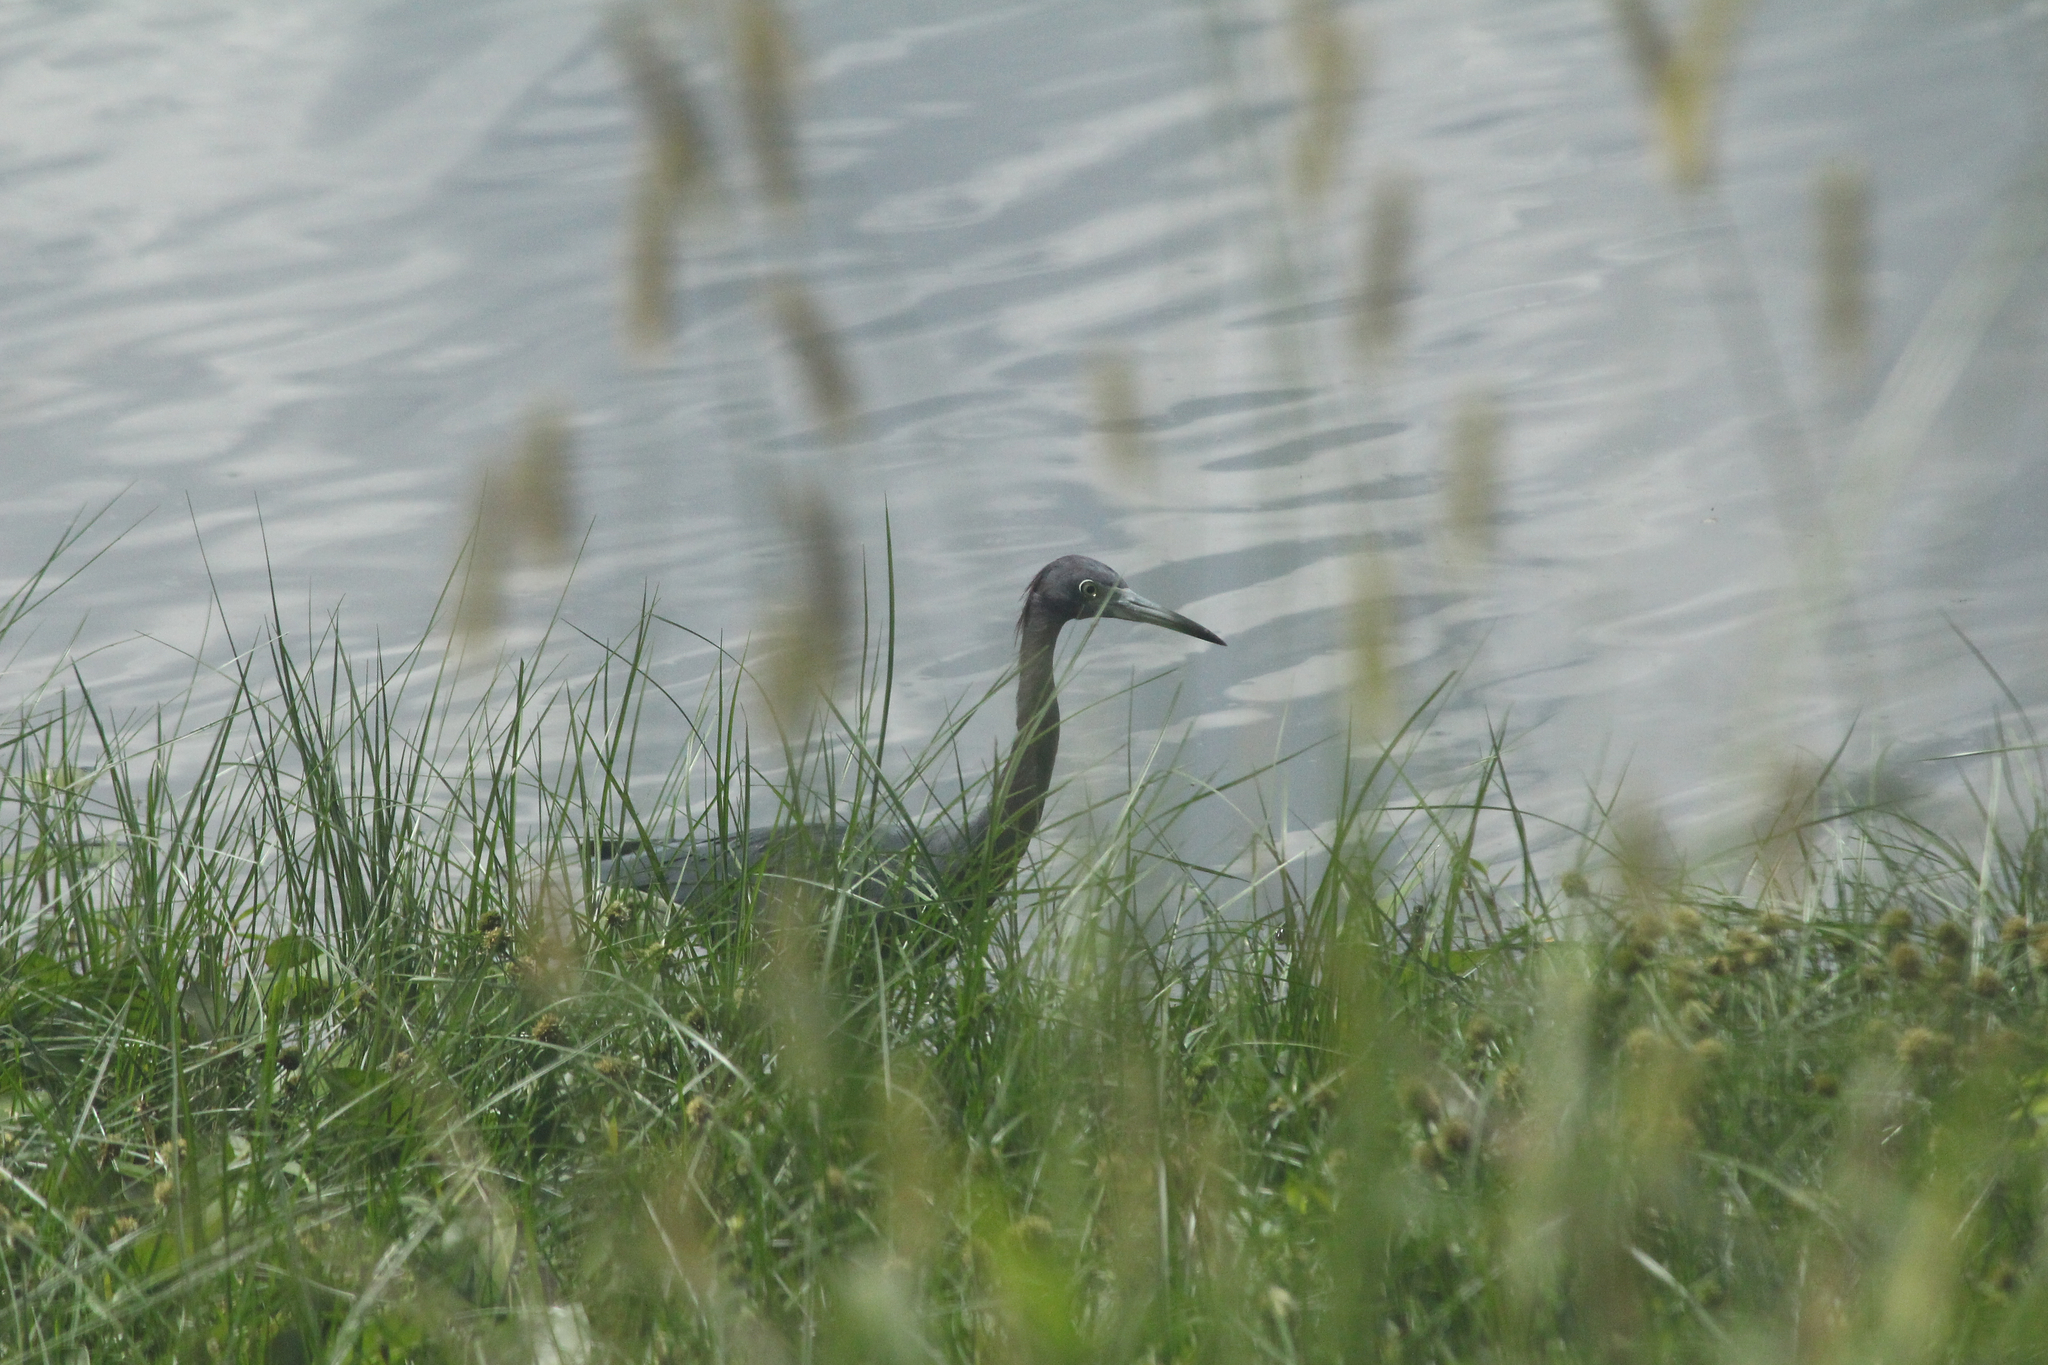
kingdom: Animalia
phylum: Chordata
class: Aves
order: Pelecaniformes
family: Ardeidae
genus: Egretta
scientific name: Egretta caerulea
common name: Little blue heron
